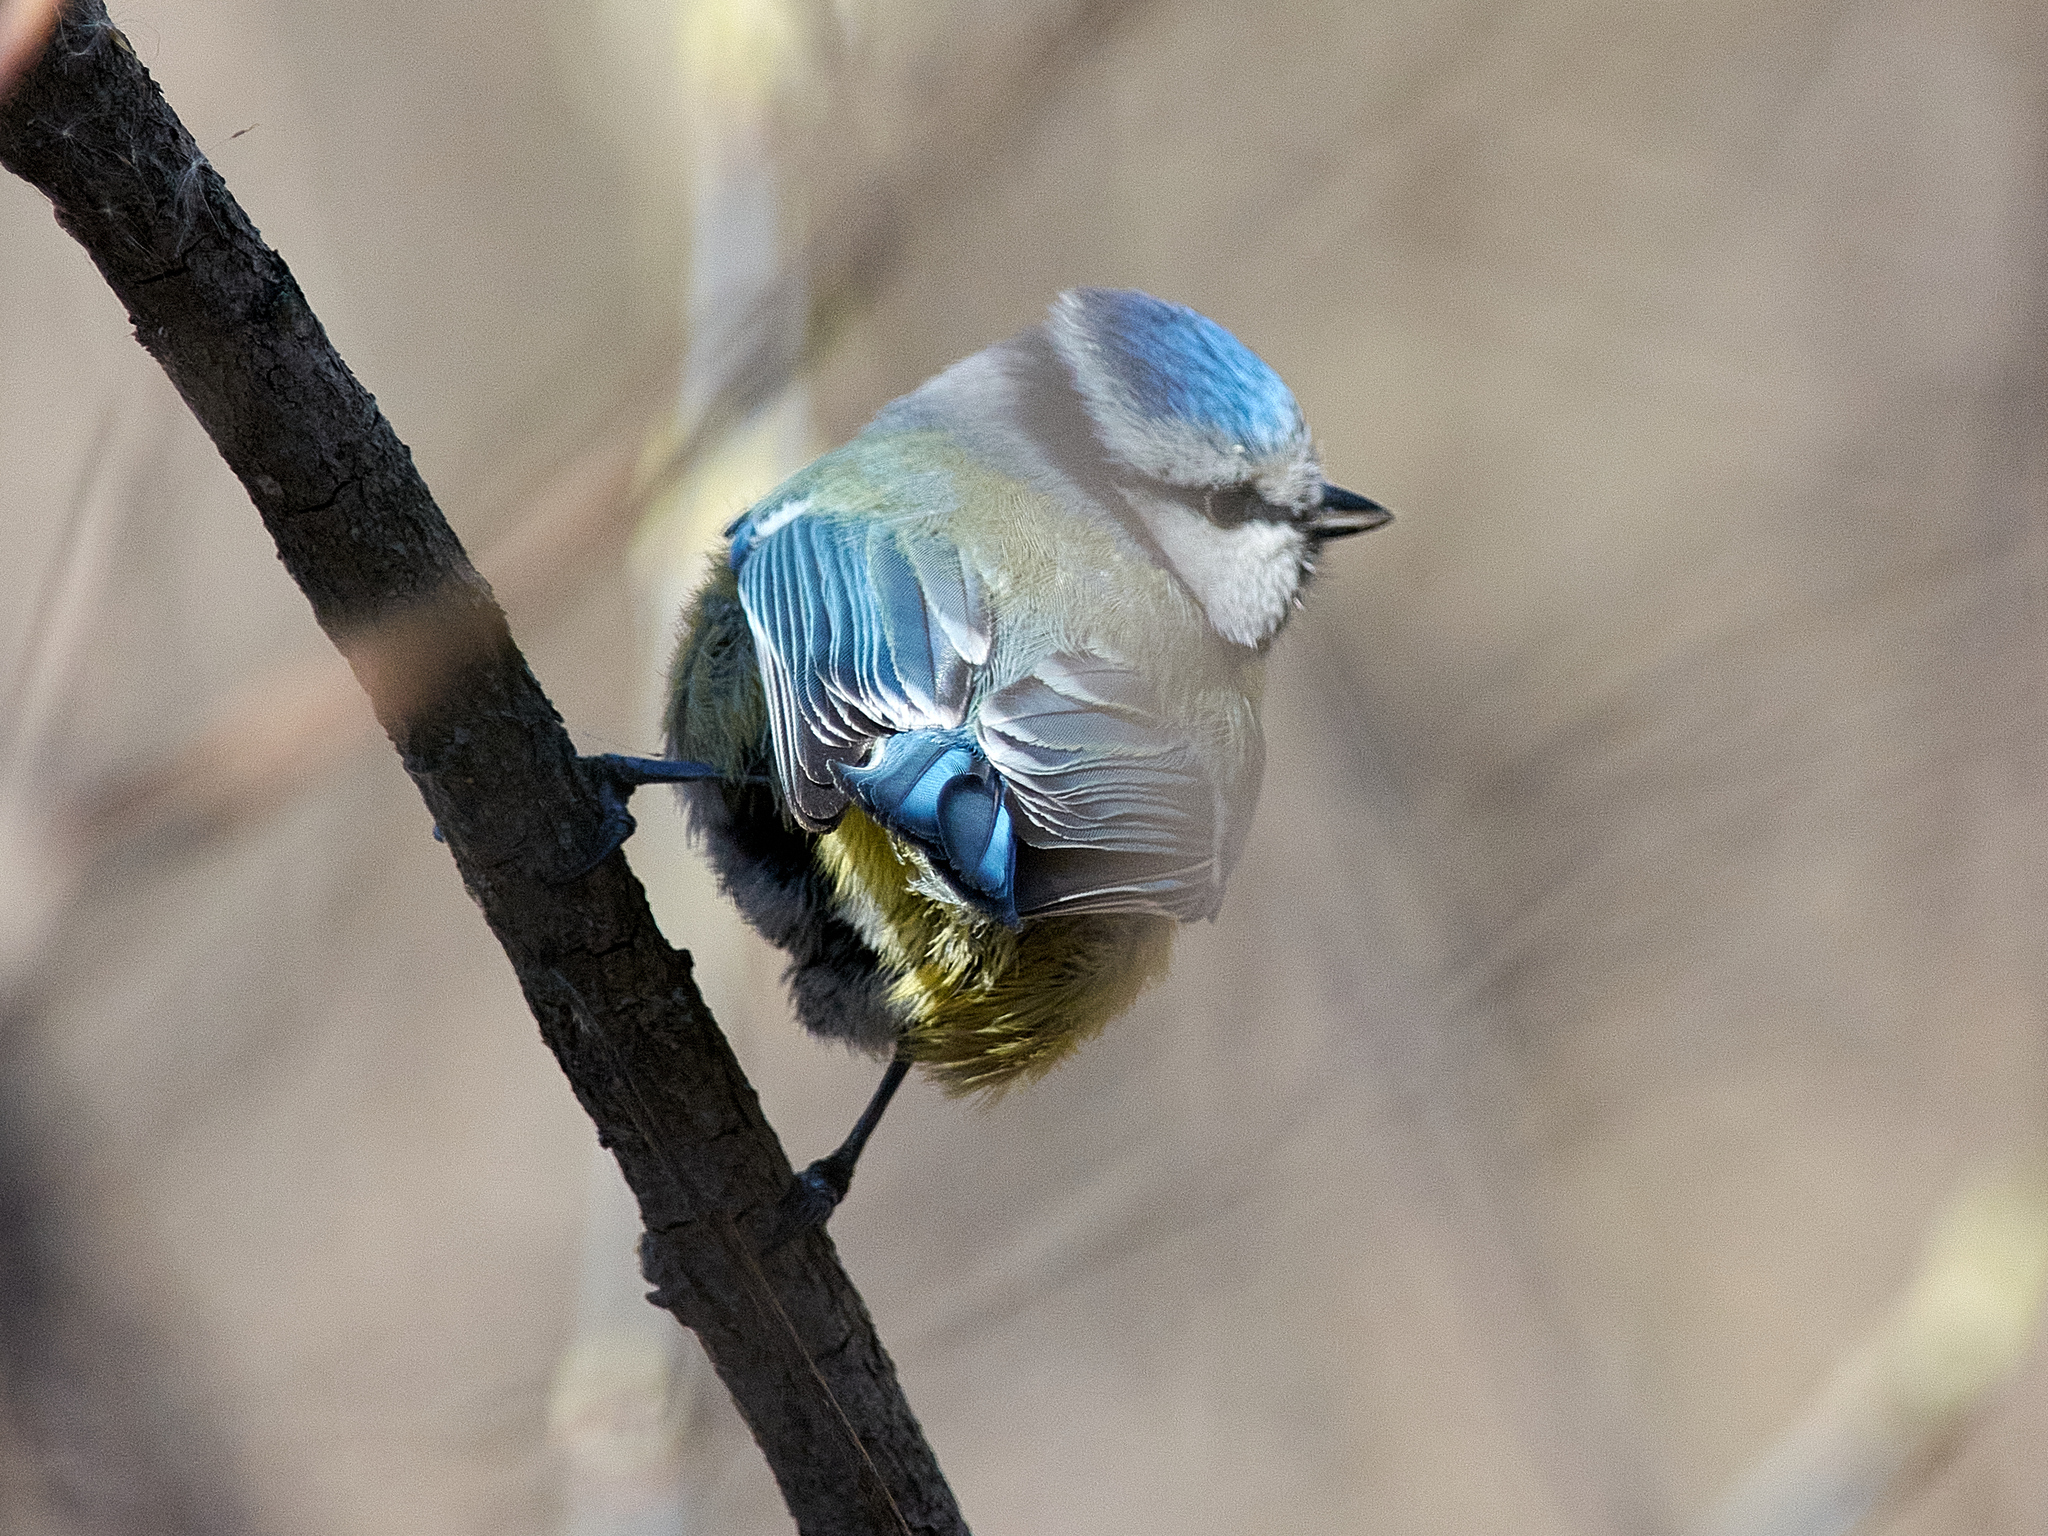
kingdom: Animalia
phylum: Chordata
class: Aves
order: Passeriformes
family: Paridae
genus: Cyanistes
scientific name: Cyanistes caeruleus
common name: Eurasian blue tit
